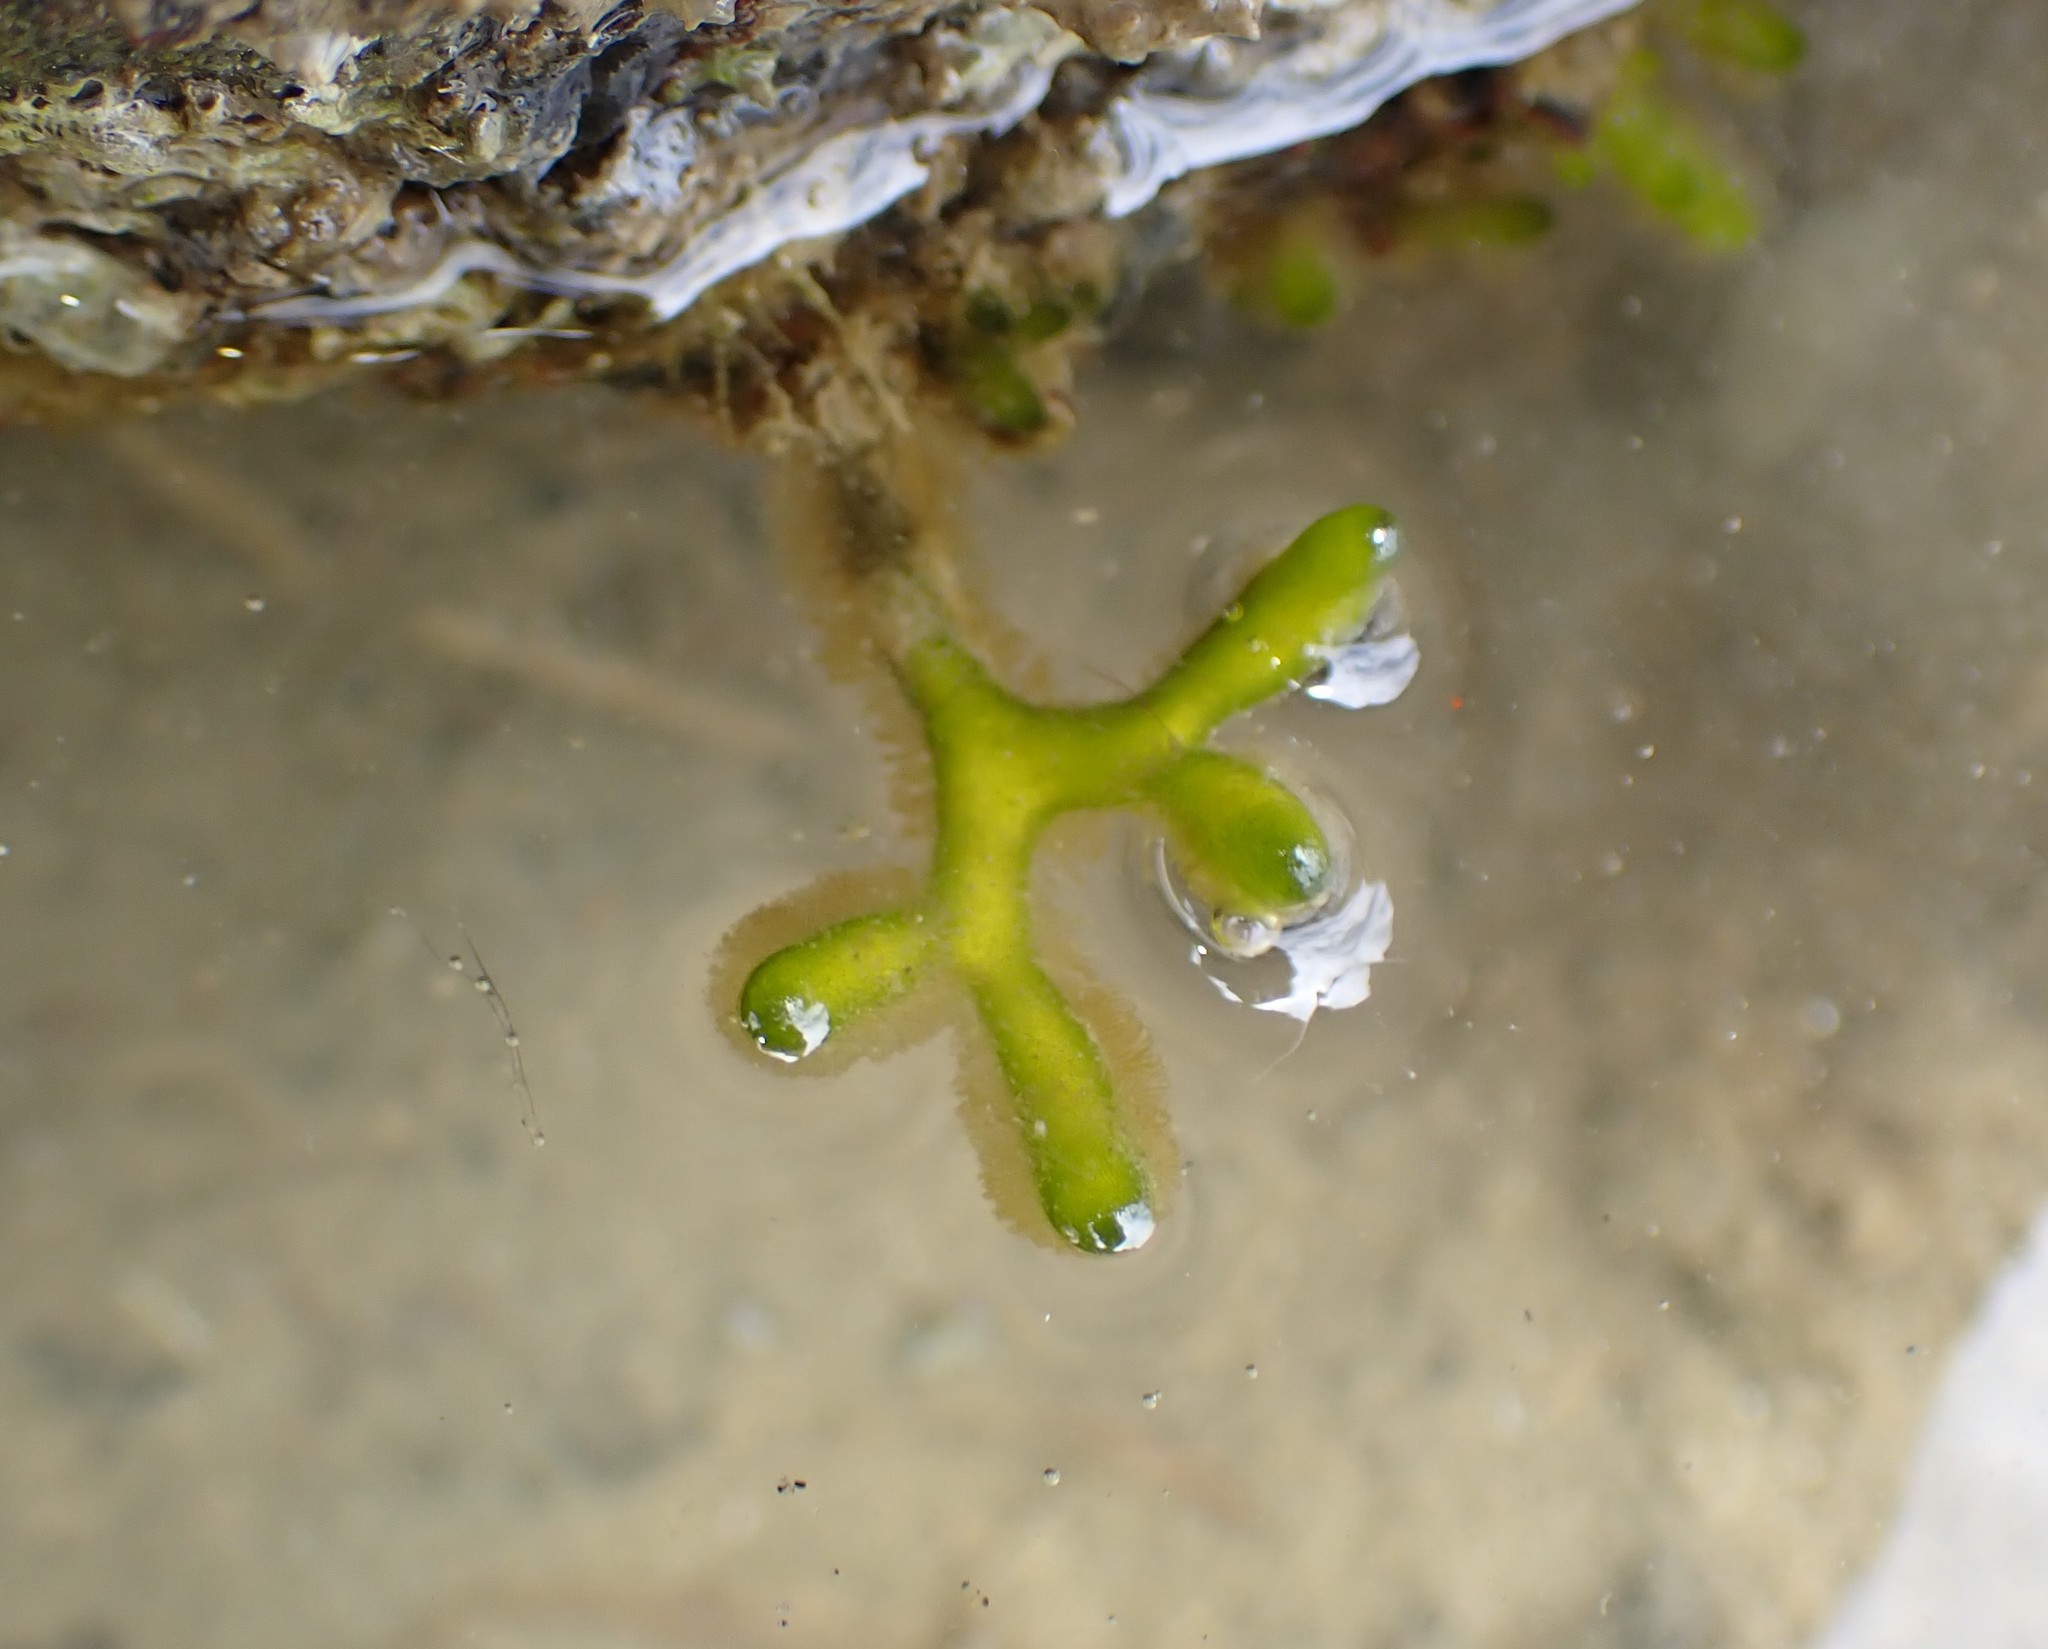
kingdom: Plantae
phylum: Chlorophyta
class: Ulvophyceae
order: Bryopsidales
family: Codiaceae
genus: Codium
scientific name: Codium fragile
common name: Dead man's fingers
